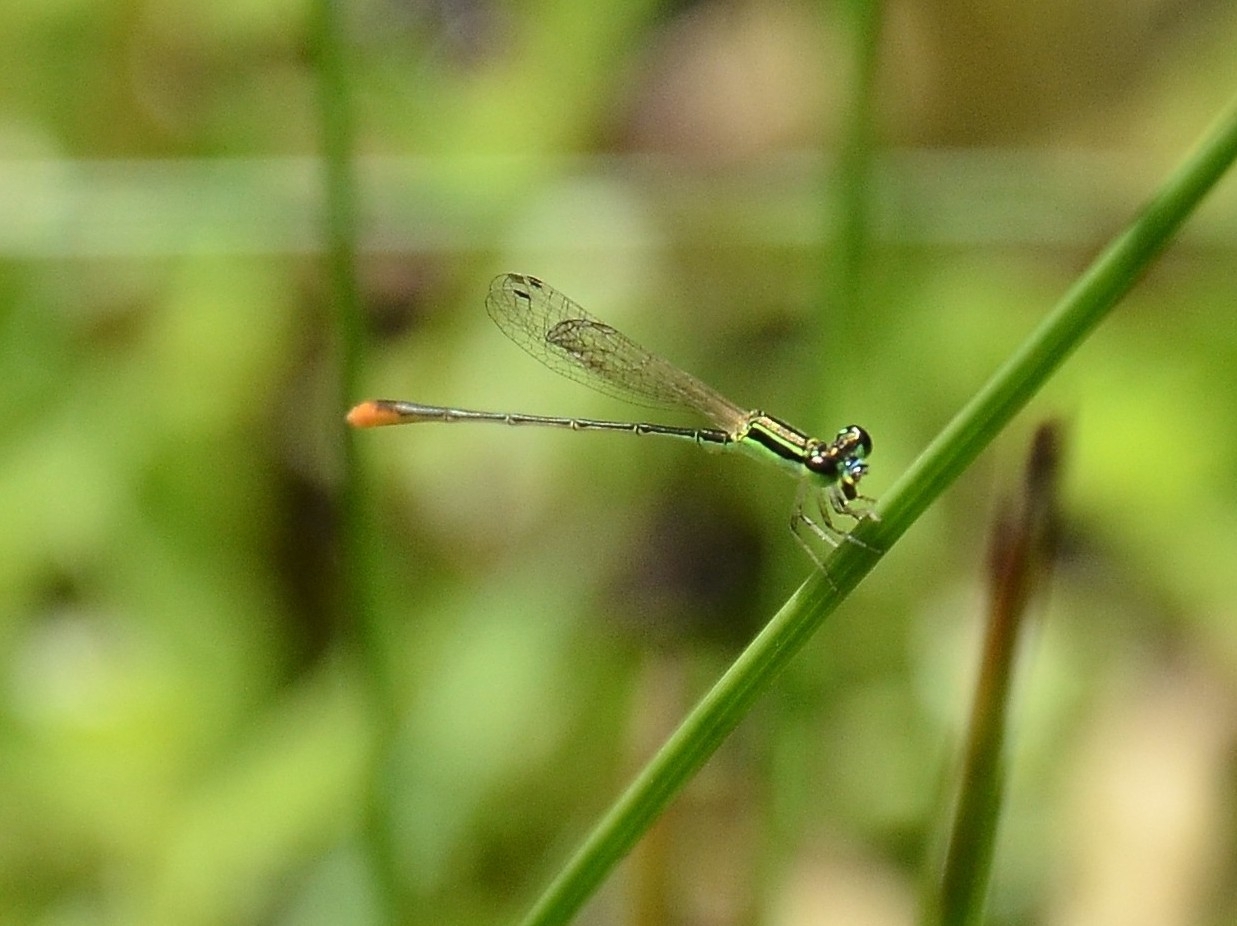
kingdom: Animalia
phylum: Arthropoda
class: Insecta
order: Odonata
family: Coenagrionidae
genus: Agriocnemis
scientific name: Agriocnemis pygmaea
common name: Pygmy wisp
